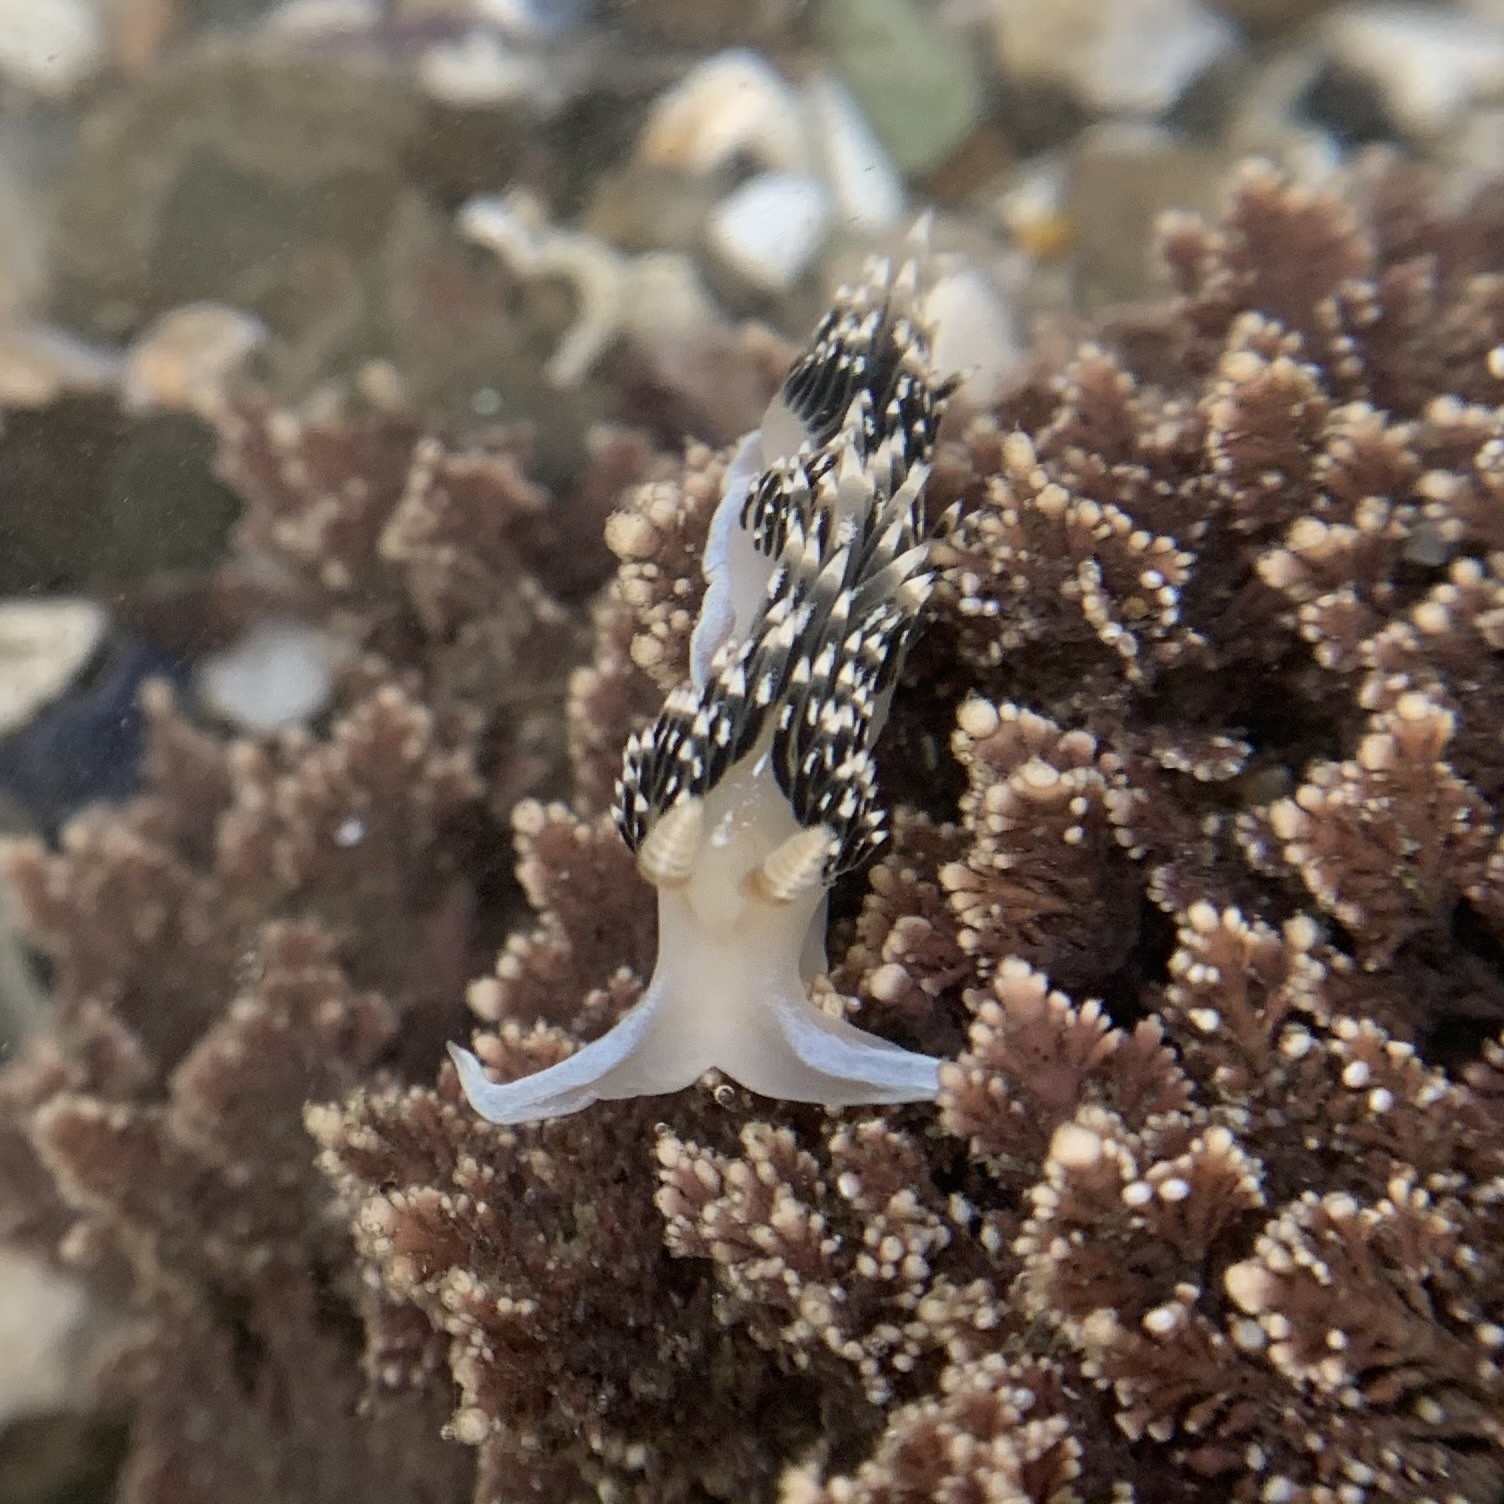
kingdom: Animalia
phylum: Mollusca
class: Gastropoda
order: Nudibranchia
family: Facelinidae
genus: Phidiana
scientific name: Phidiana hiltoni
